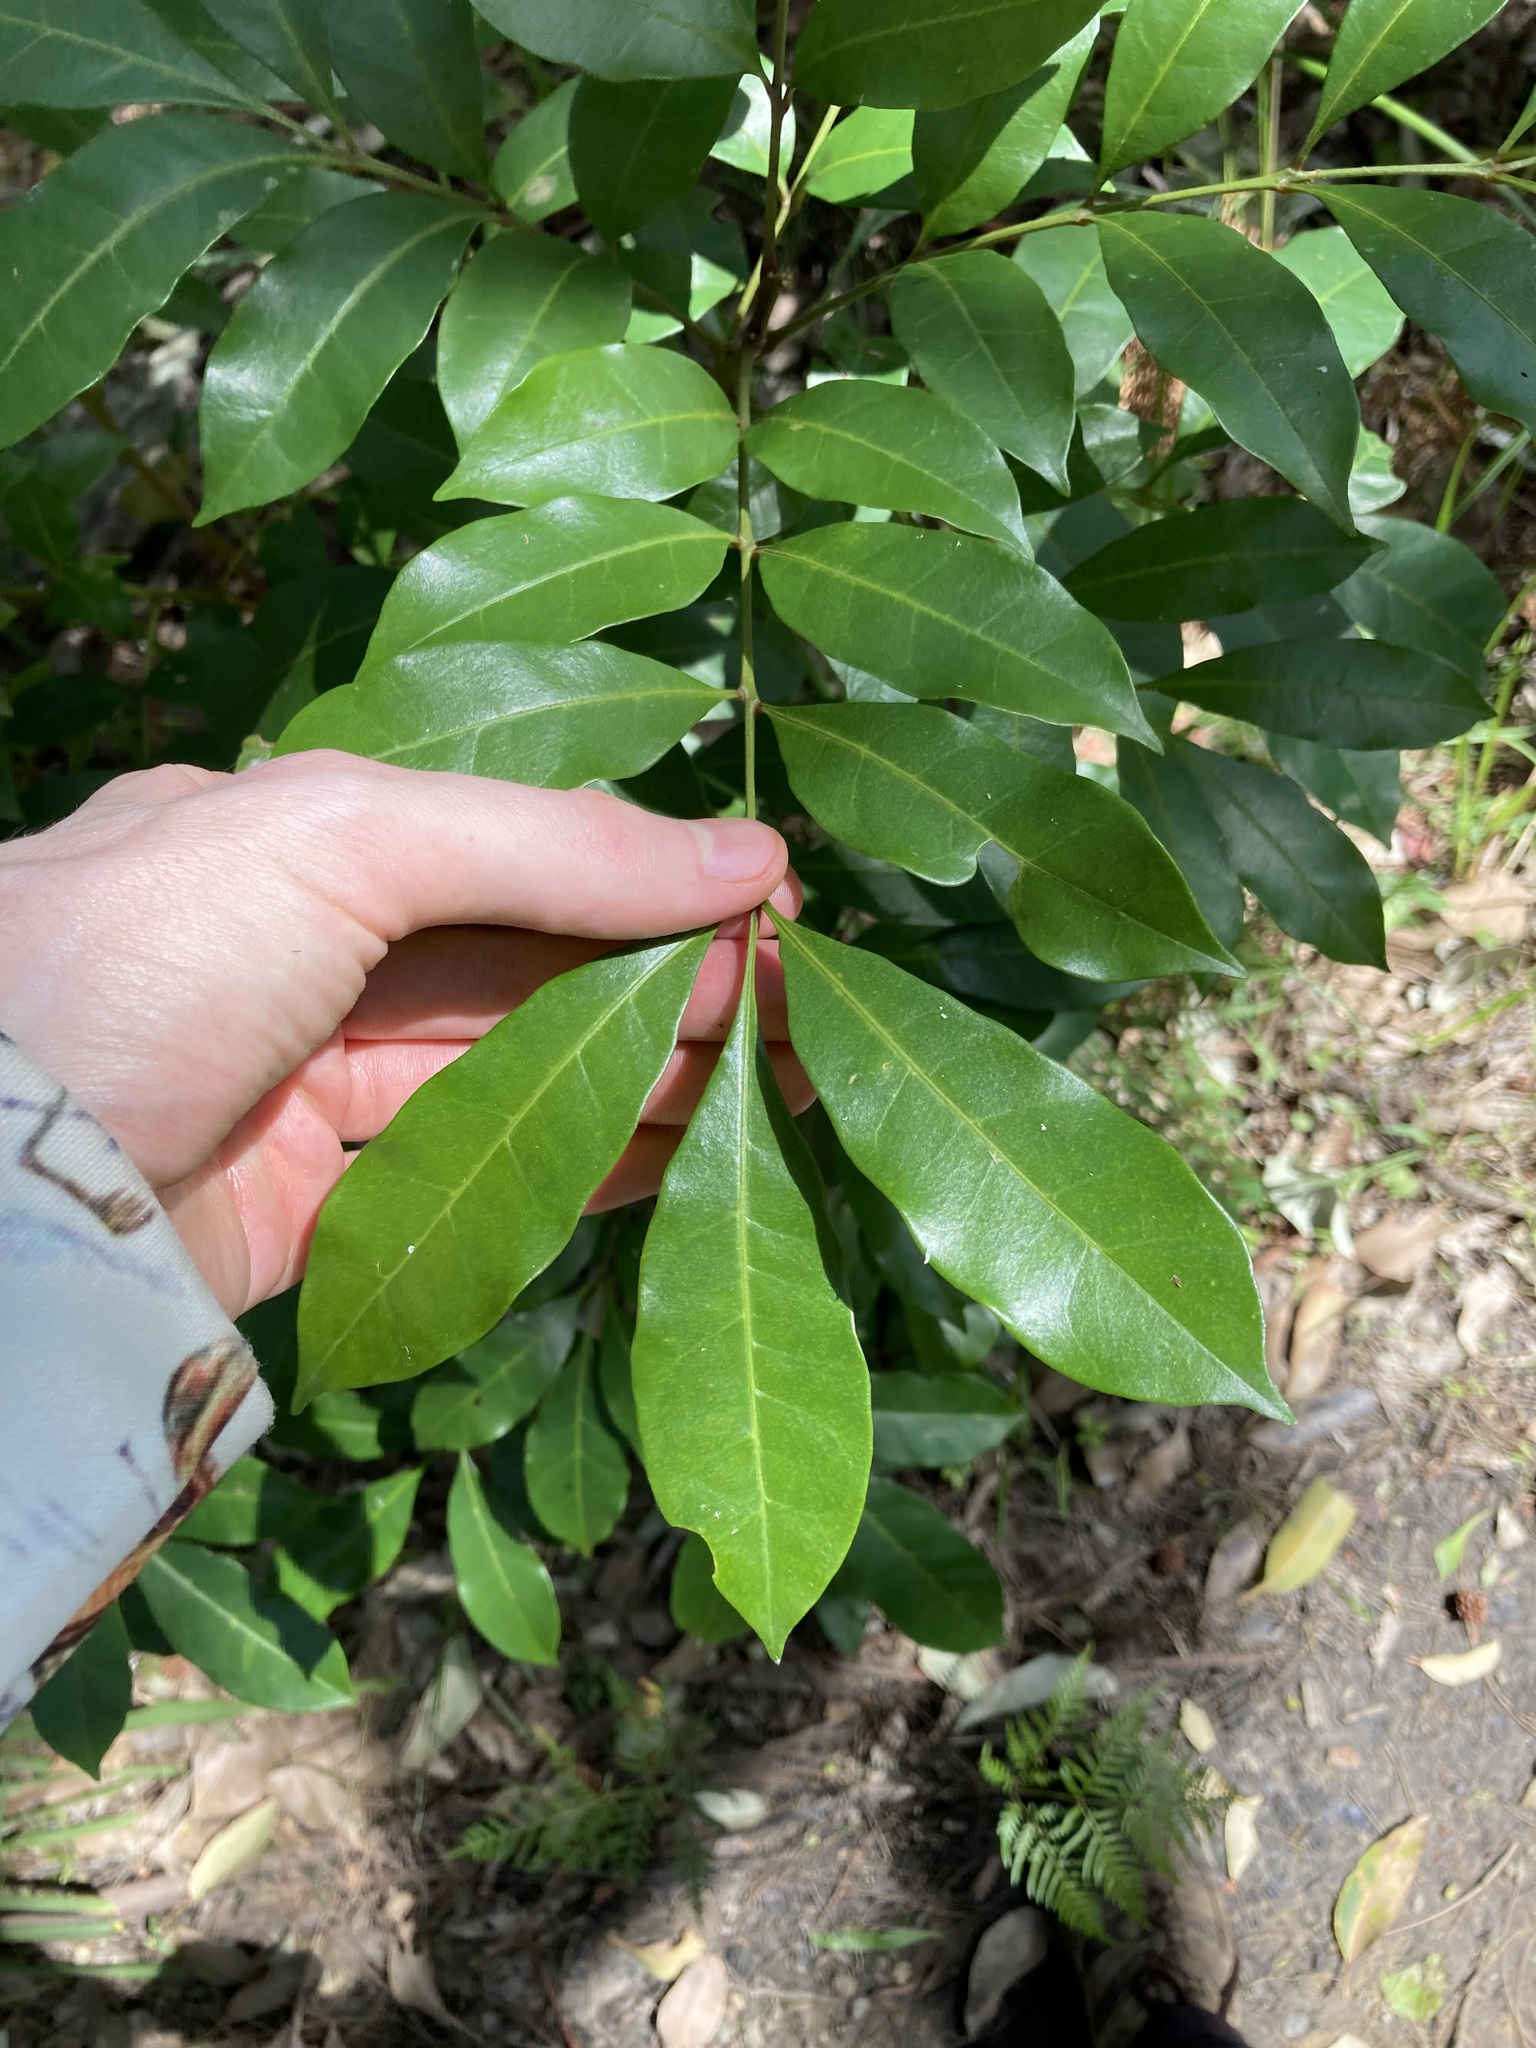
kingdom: Plantae
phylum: Tracheophyta
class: Magnoliopsida
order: Sapindales
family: Meliaceae
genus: Synoum
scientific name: Synoum glandulosum
